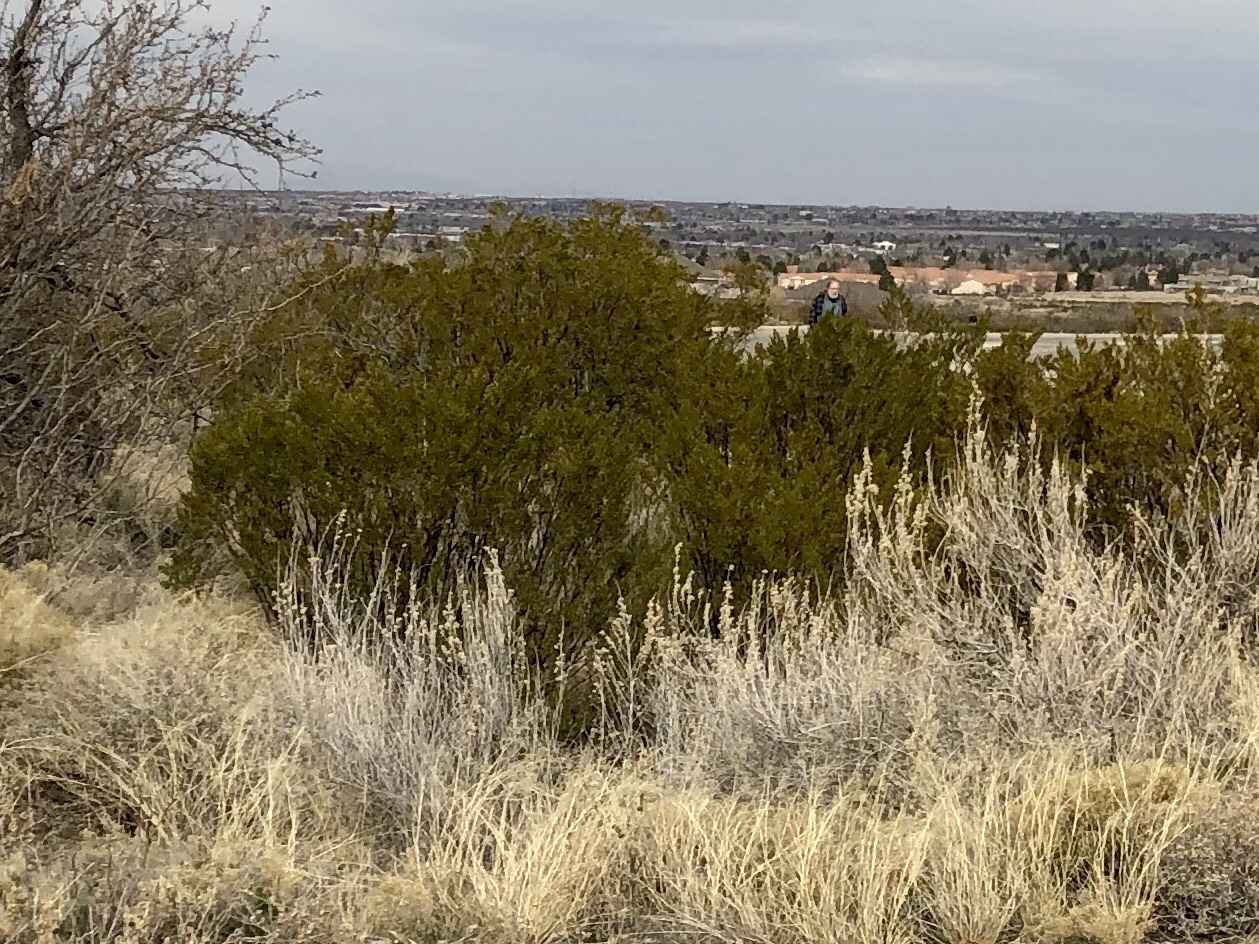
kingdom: Plantae
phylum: Tracheophyta
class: Magnoliopsida
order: Zygophyllales
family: Zygophyllaceae
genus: Larrea
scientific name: Larrea tridentata
